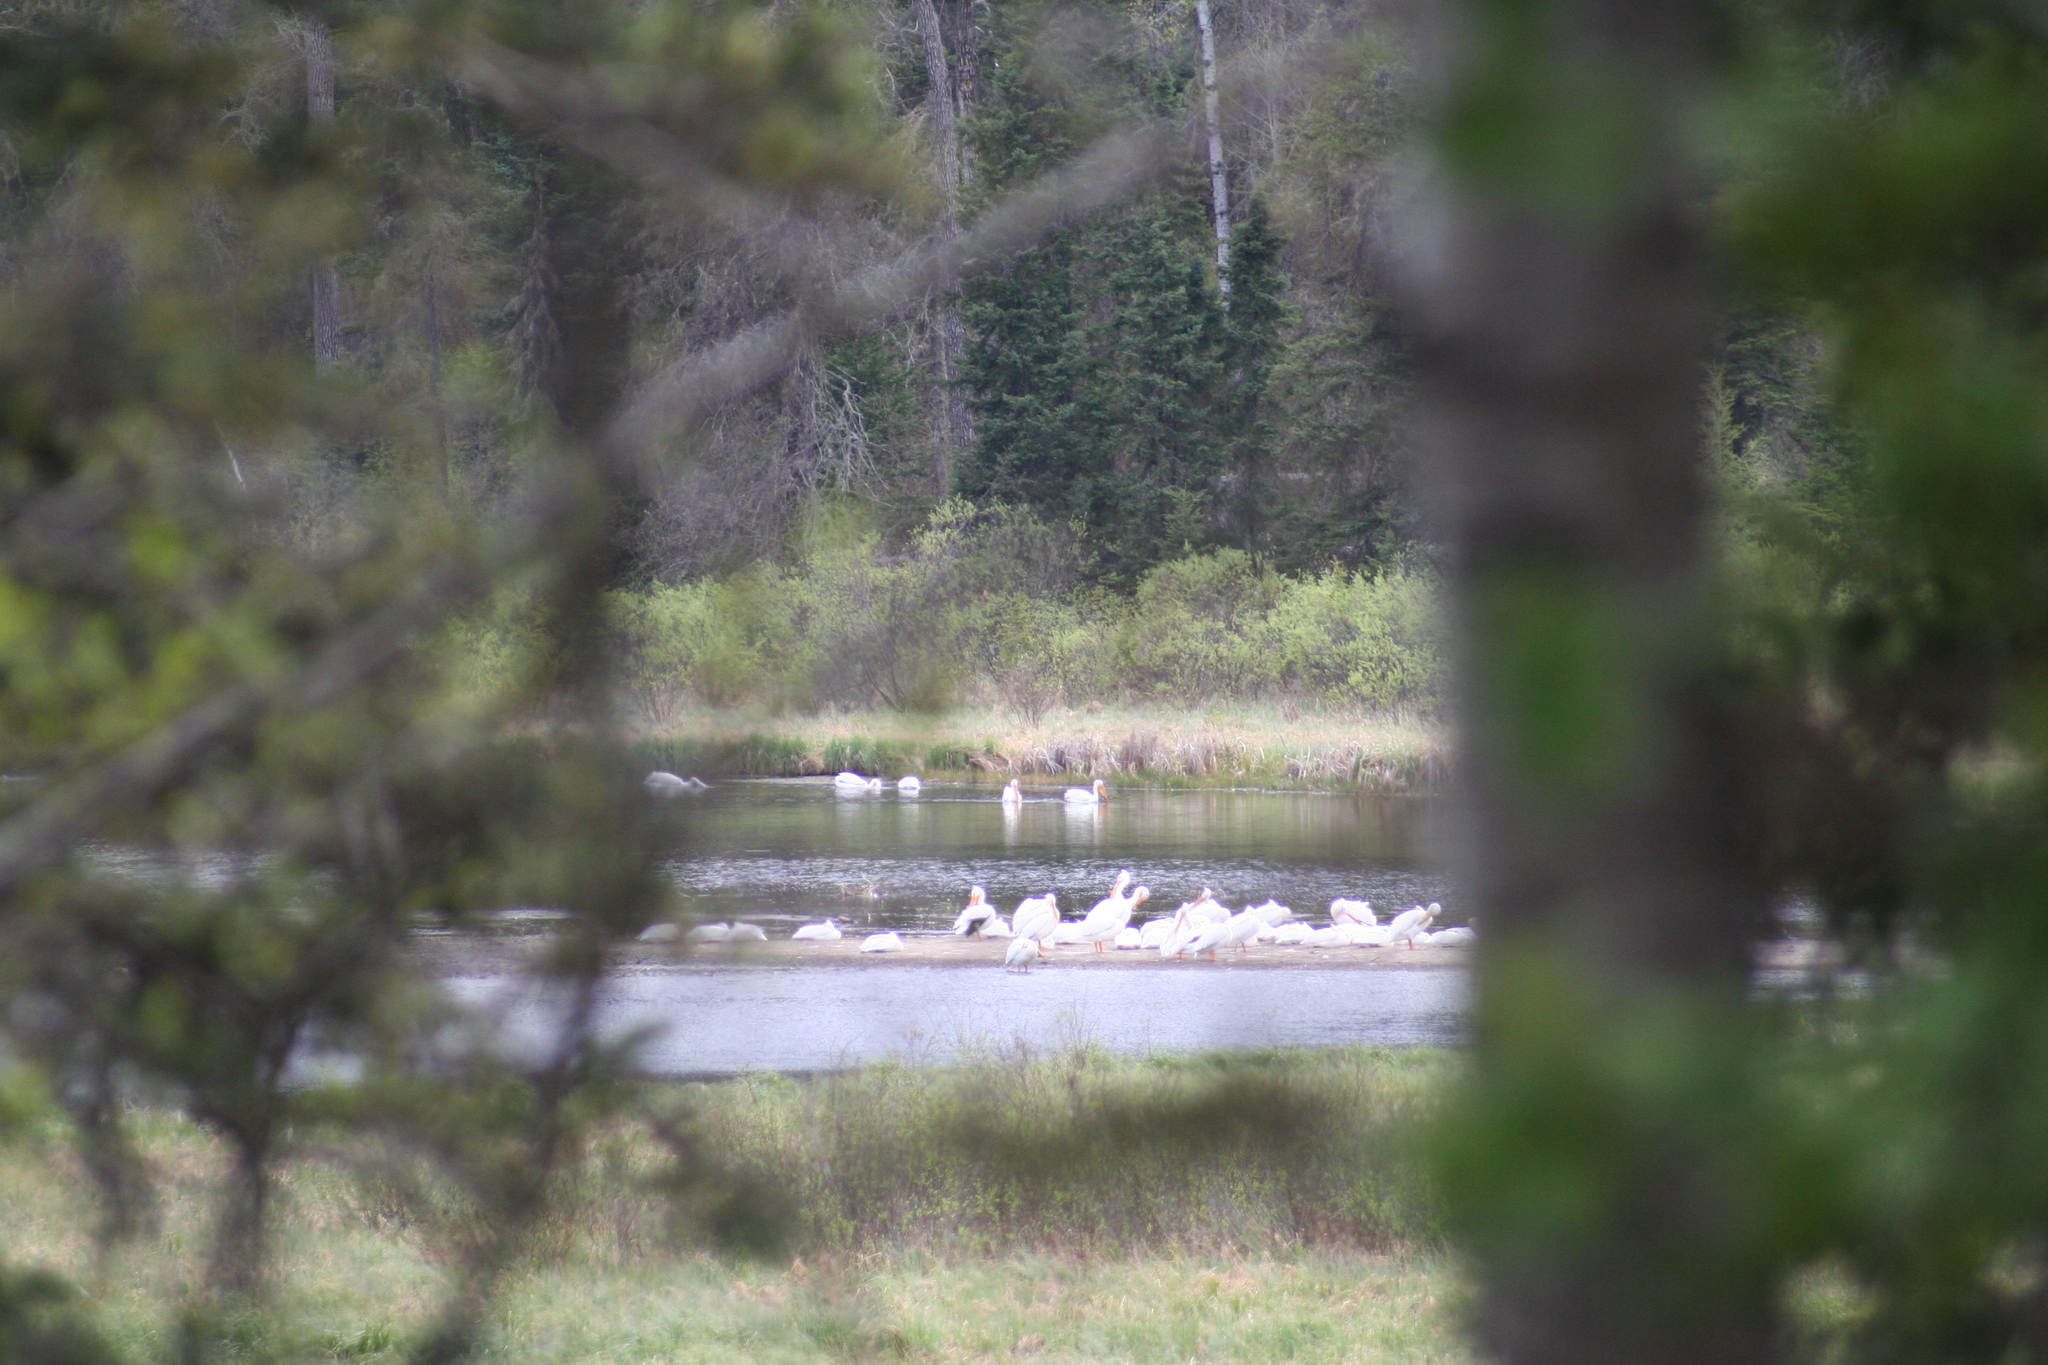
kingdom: Animalia
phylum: Chordata
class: Aves
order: Pelecaniformes
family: Pelecanidae
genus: Pelecanus
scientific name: Pelecanus erythrorhynchos
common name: American white pelican
